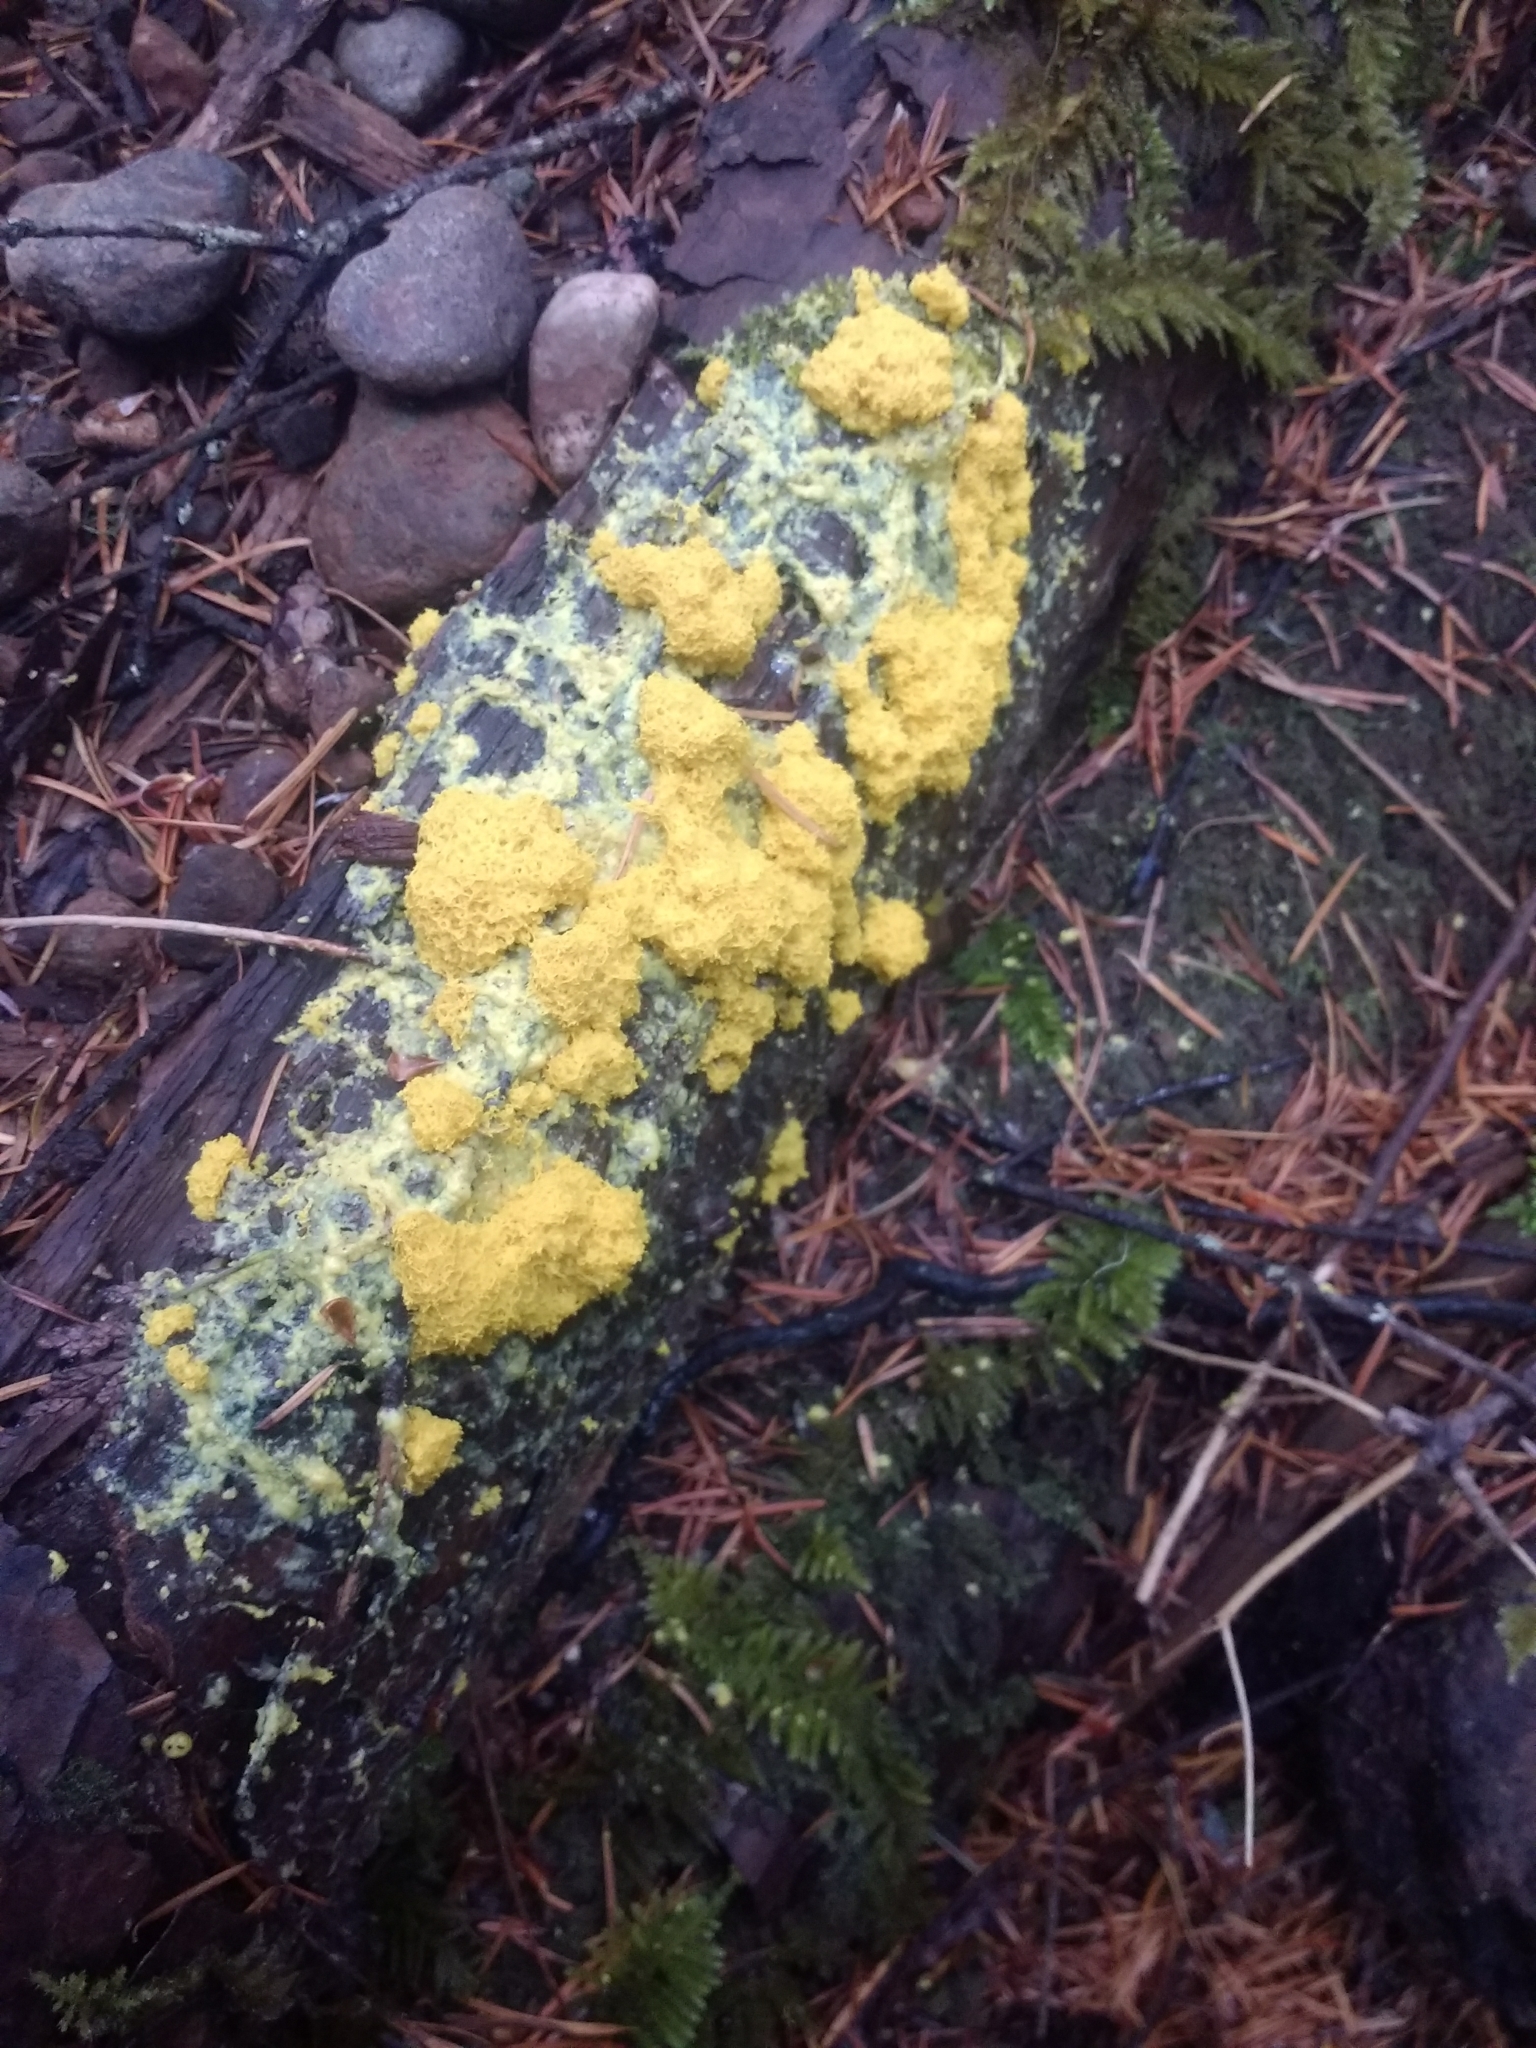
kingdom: Protozoa
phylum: Mycetozoa
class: Myxomycetes
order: Physarales
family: Physaraceae
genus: Fuligo
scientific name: Fuligo septica
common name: Dog vomit slime mold
